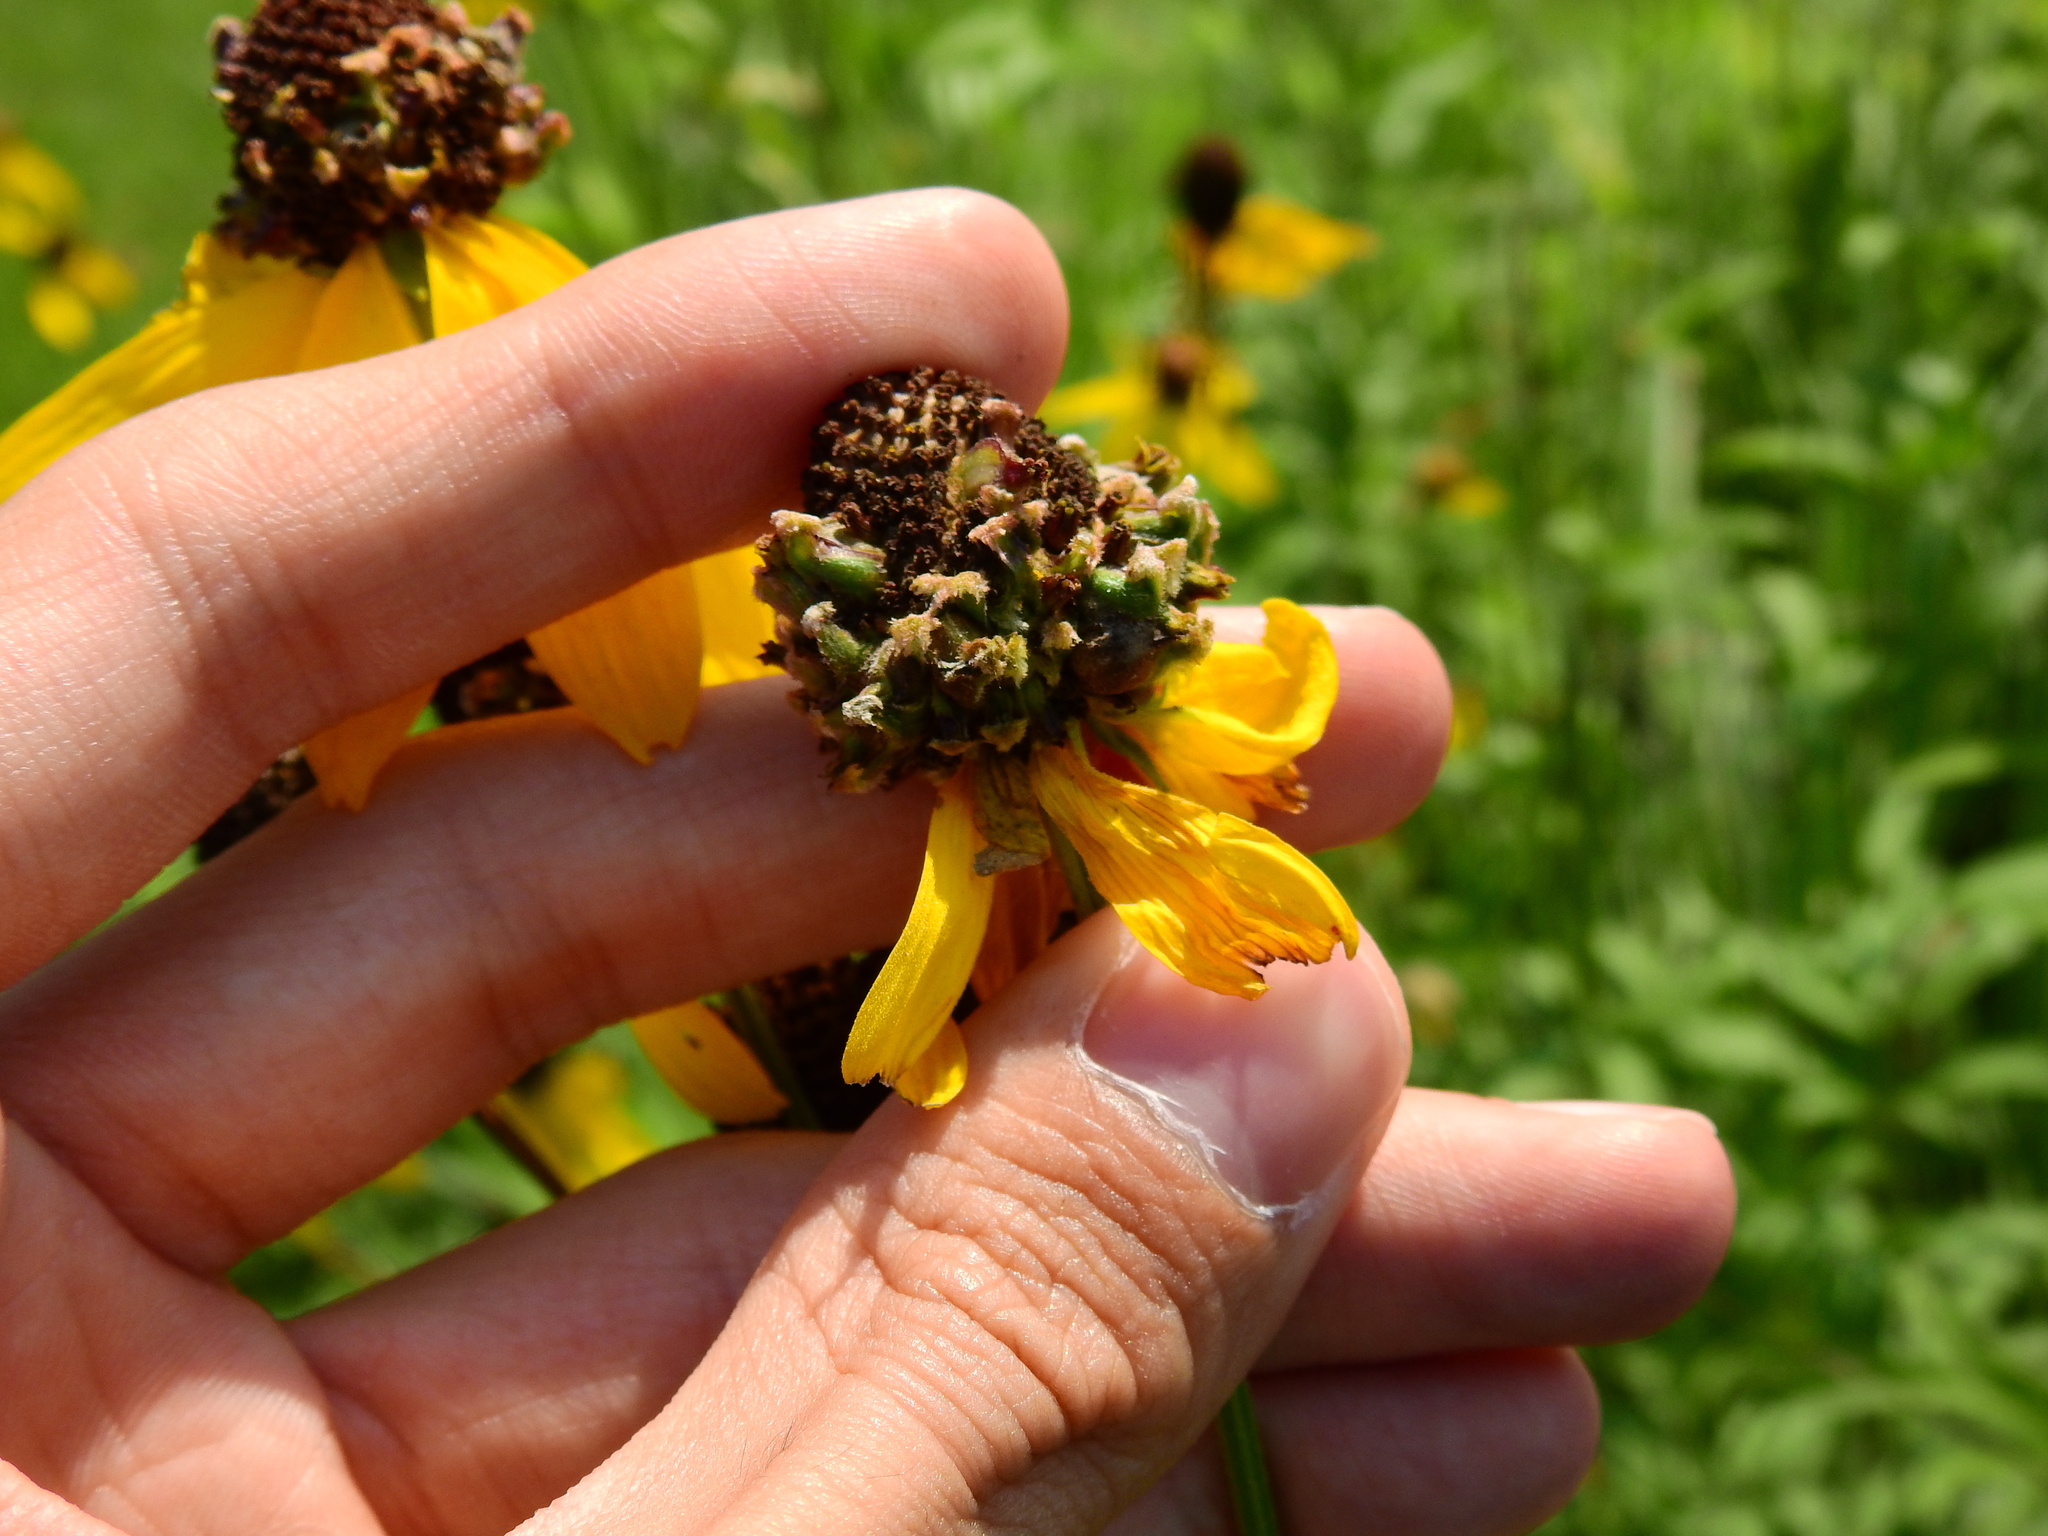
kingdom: Animalia
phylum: Arthropoda
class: Insecta
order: Diptera
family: Cecidomyiidae
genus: Asphondylia
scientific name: Asphondylia ratibidae
